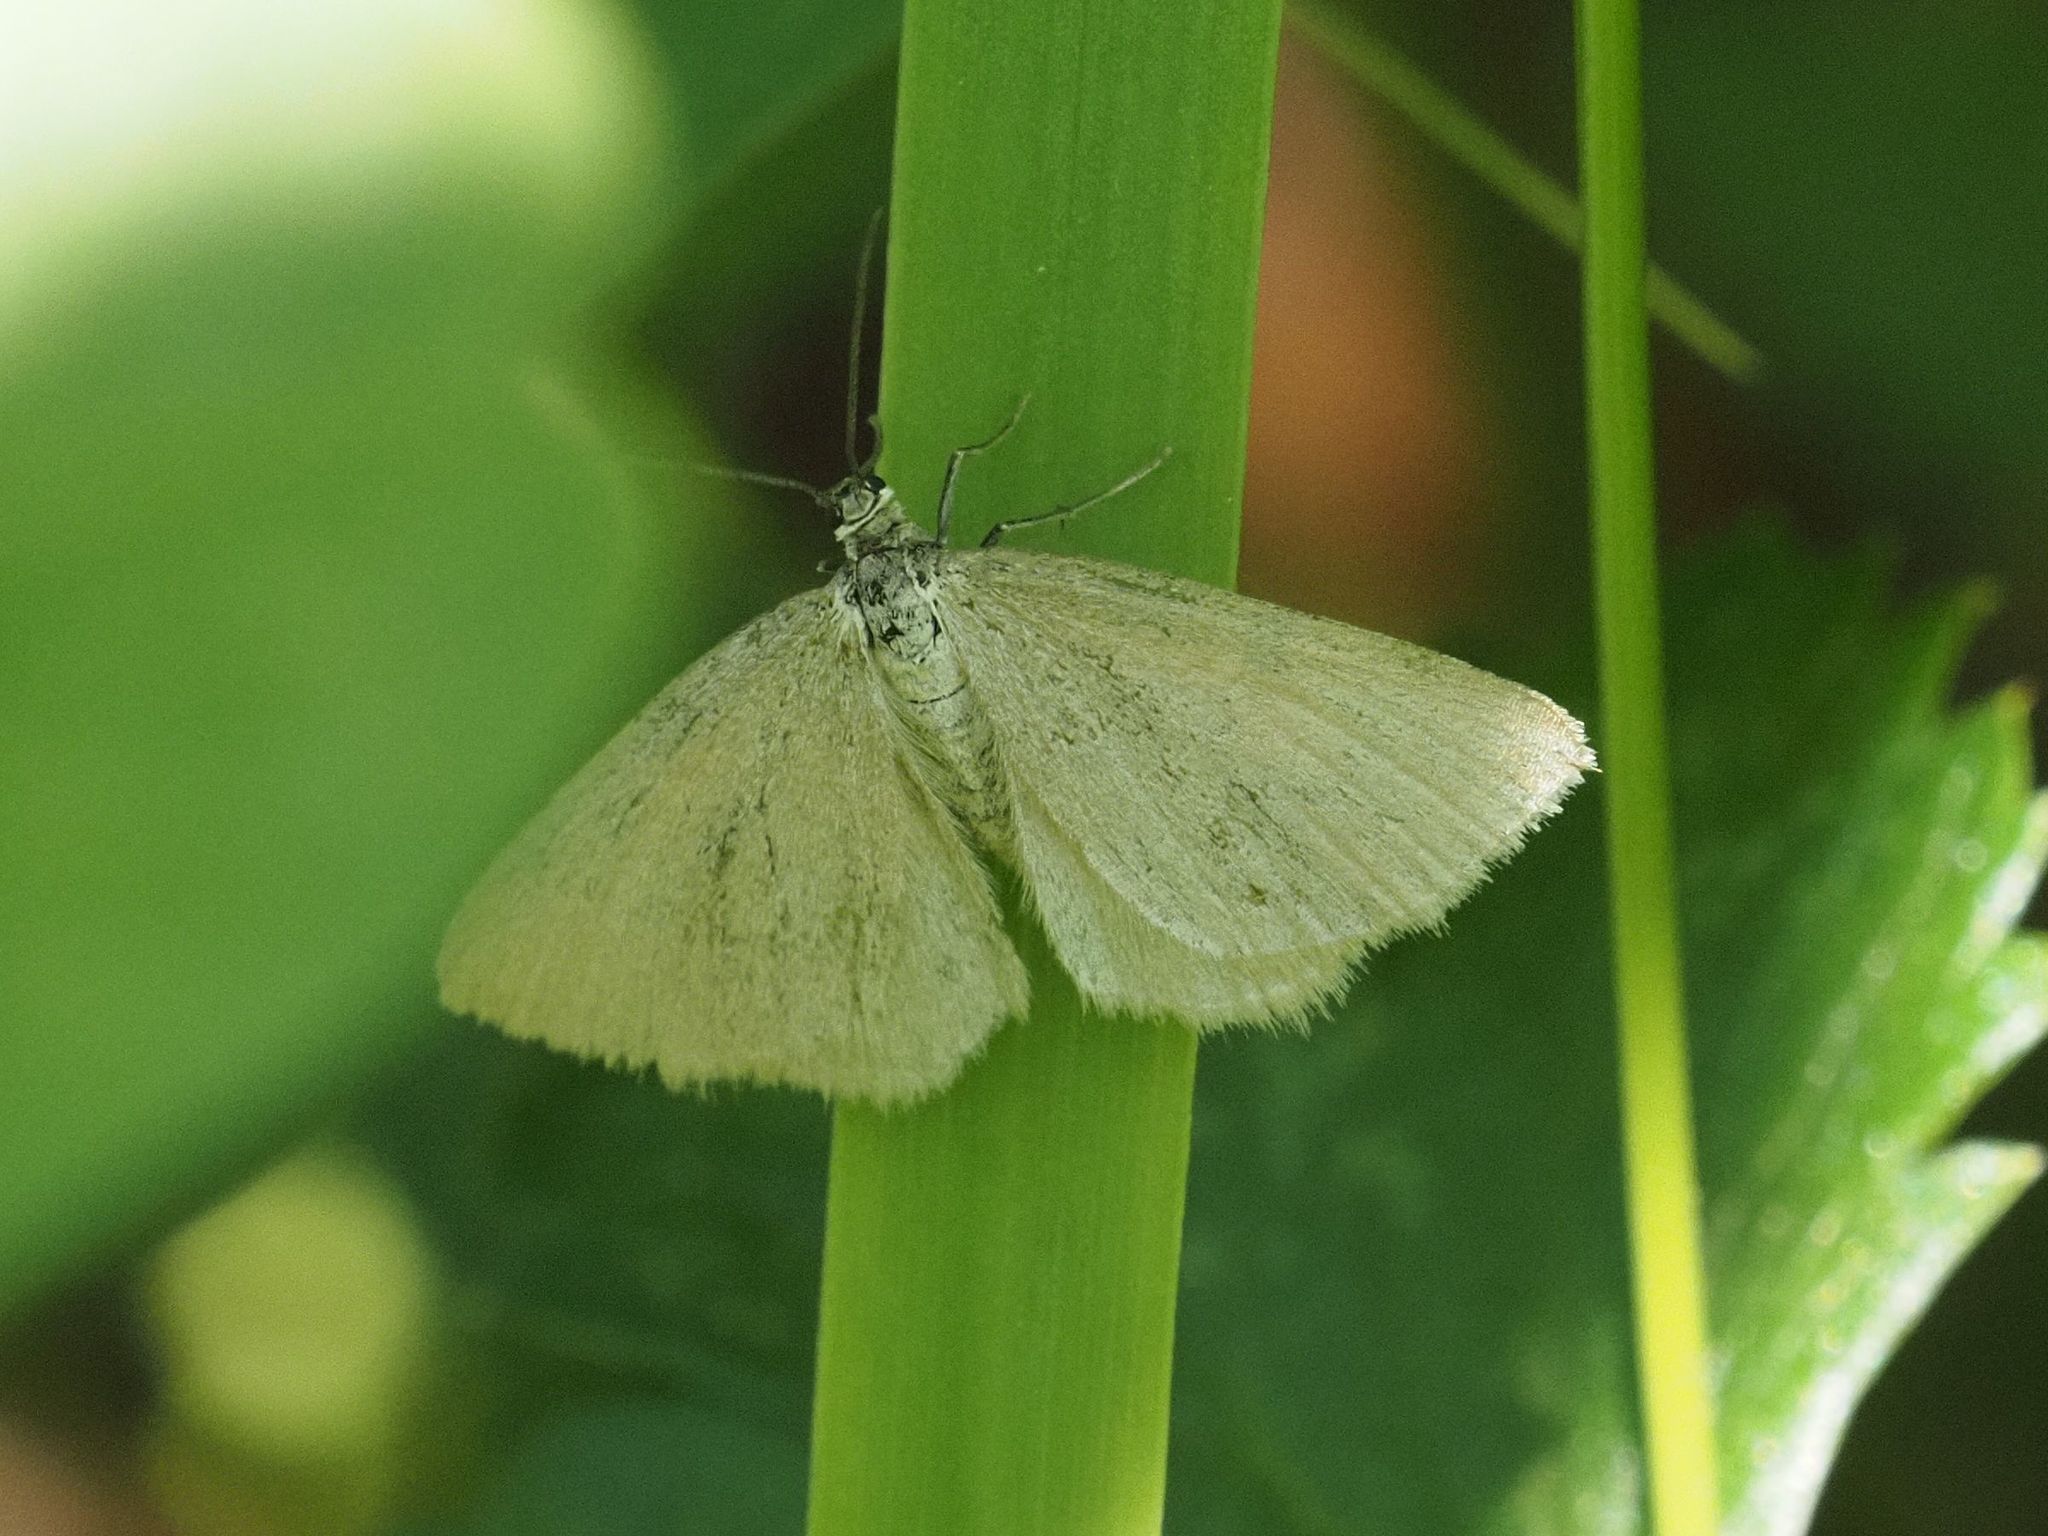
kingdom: Animalia
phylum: Arthropoda
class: Insecta
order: Lepidoptera
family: Geometridae
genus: Minoa
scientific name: Minoa murinata
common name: Drab looper
